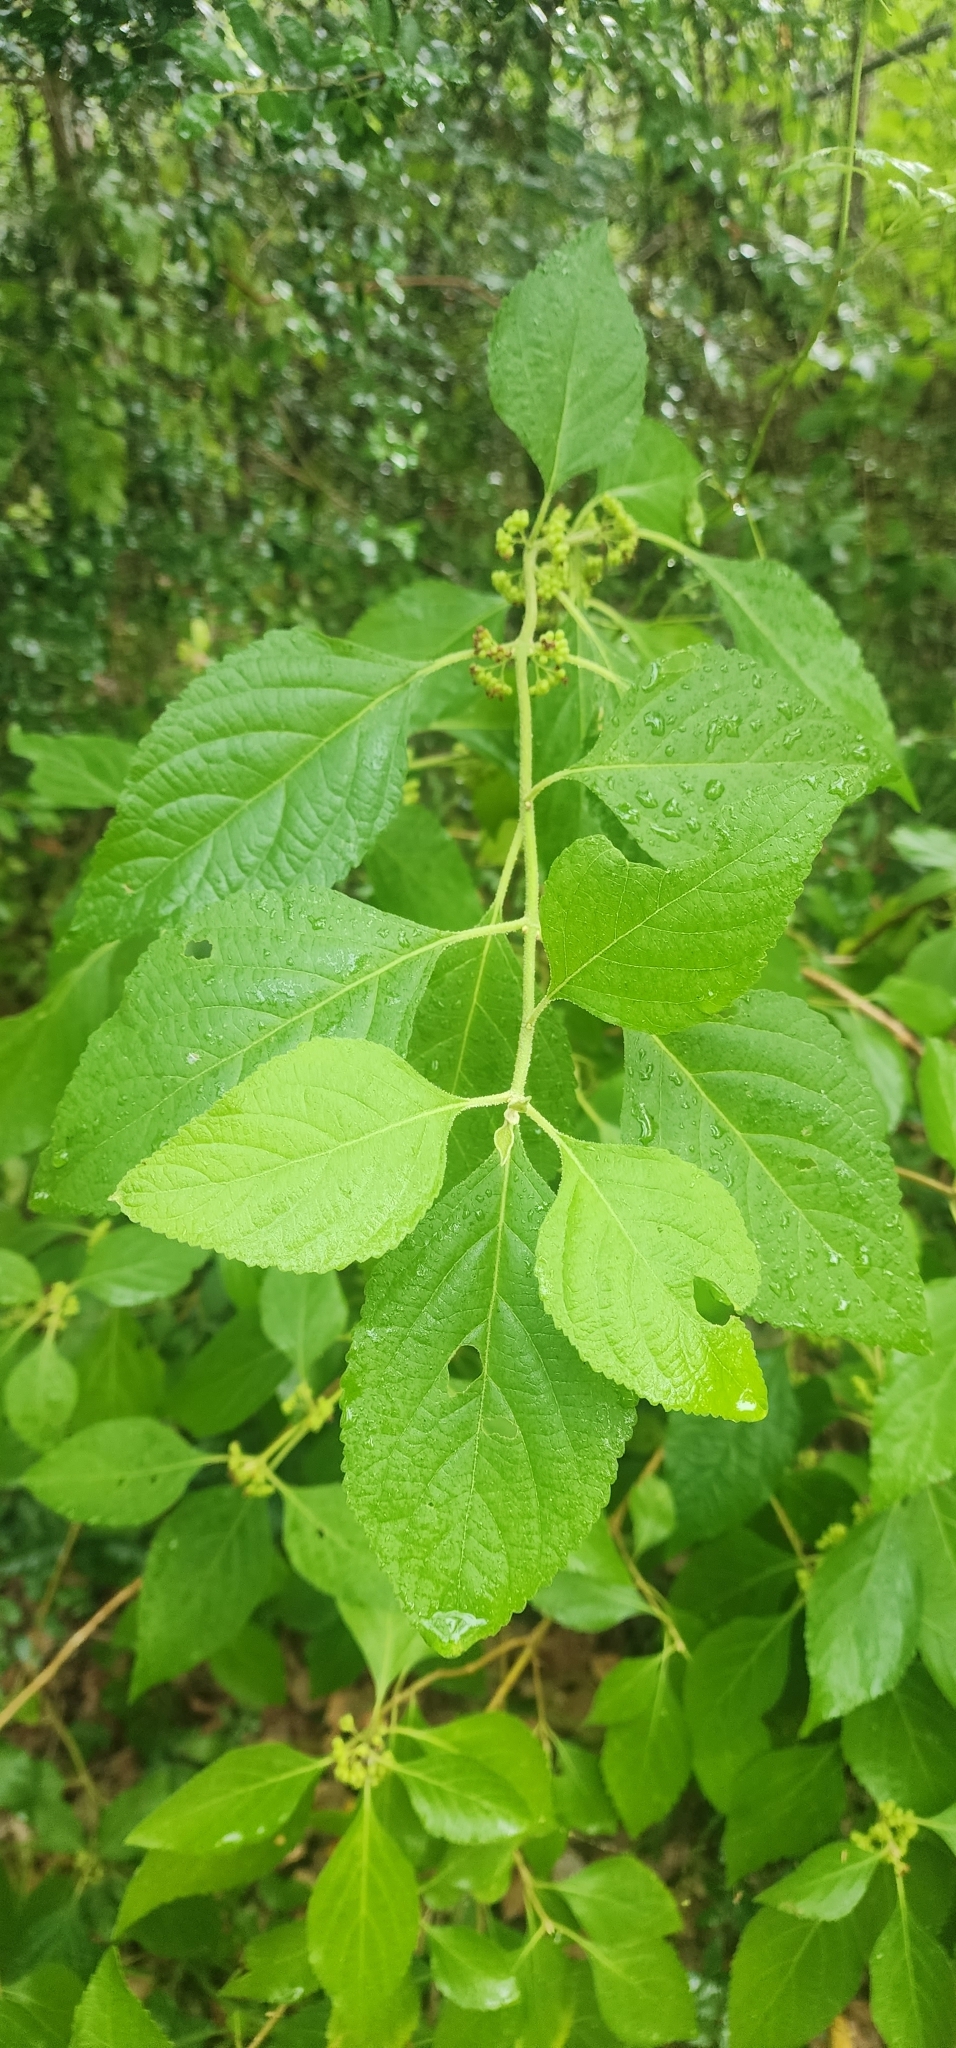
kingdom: Plantae
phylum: Tracheophyta
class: Magnoliopsida
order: Lamiales
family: Lamiaceae
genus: Callicarpa
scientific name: Callicarpa americana
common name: American beautyberry
